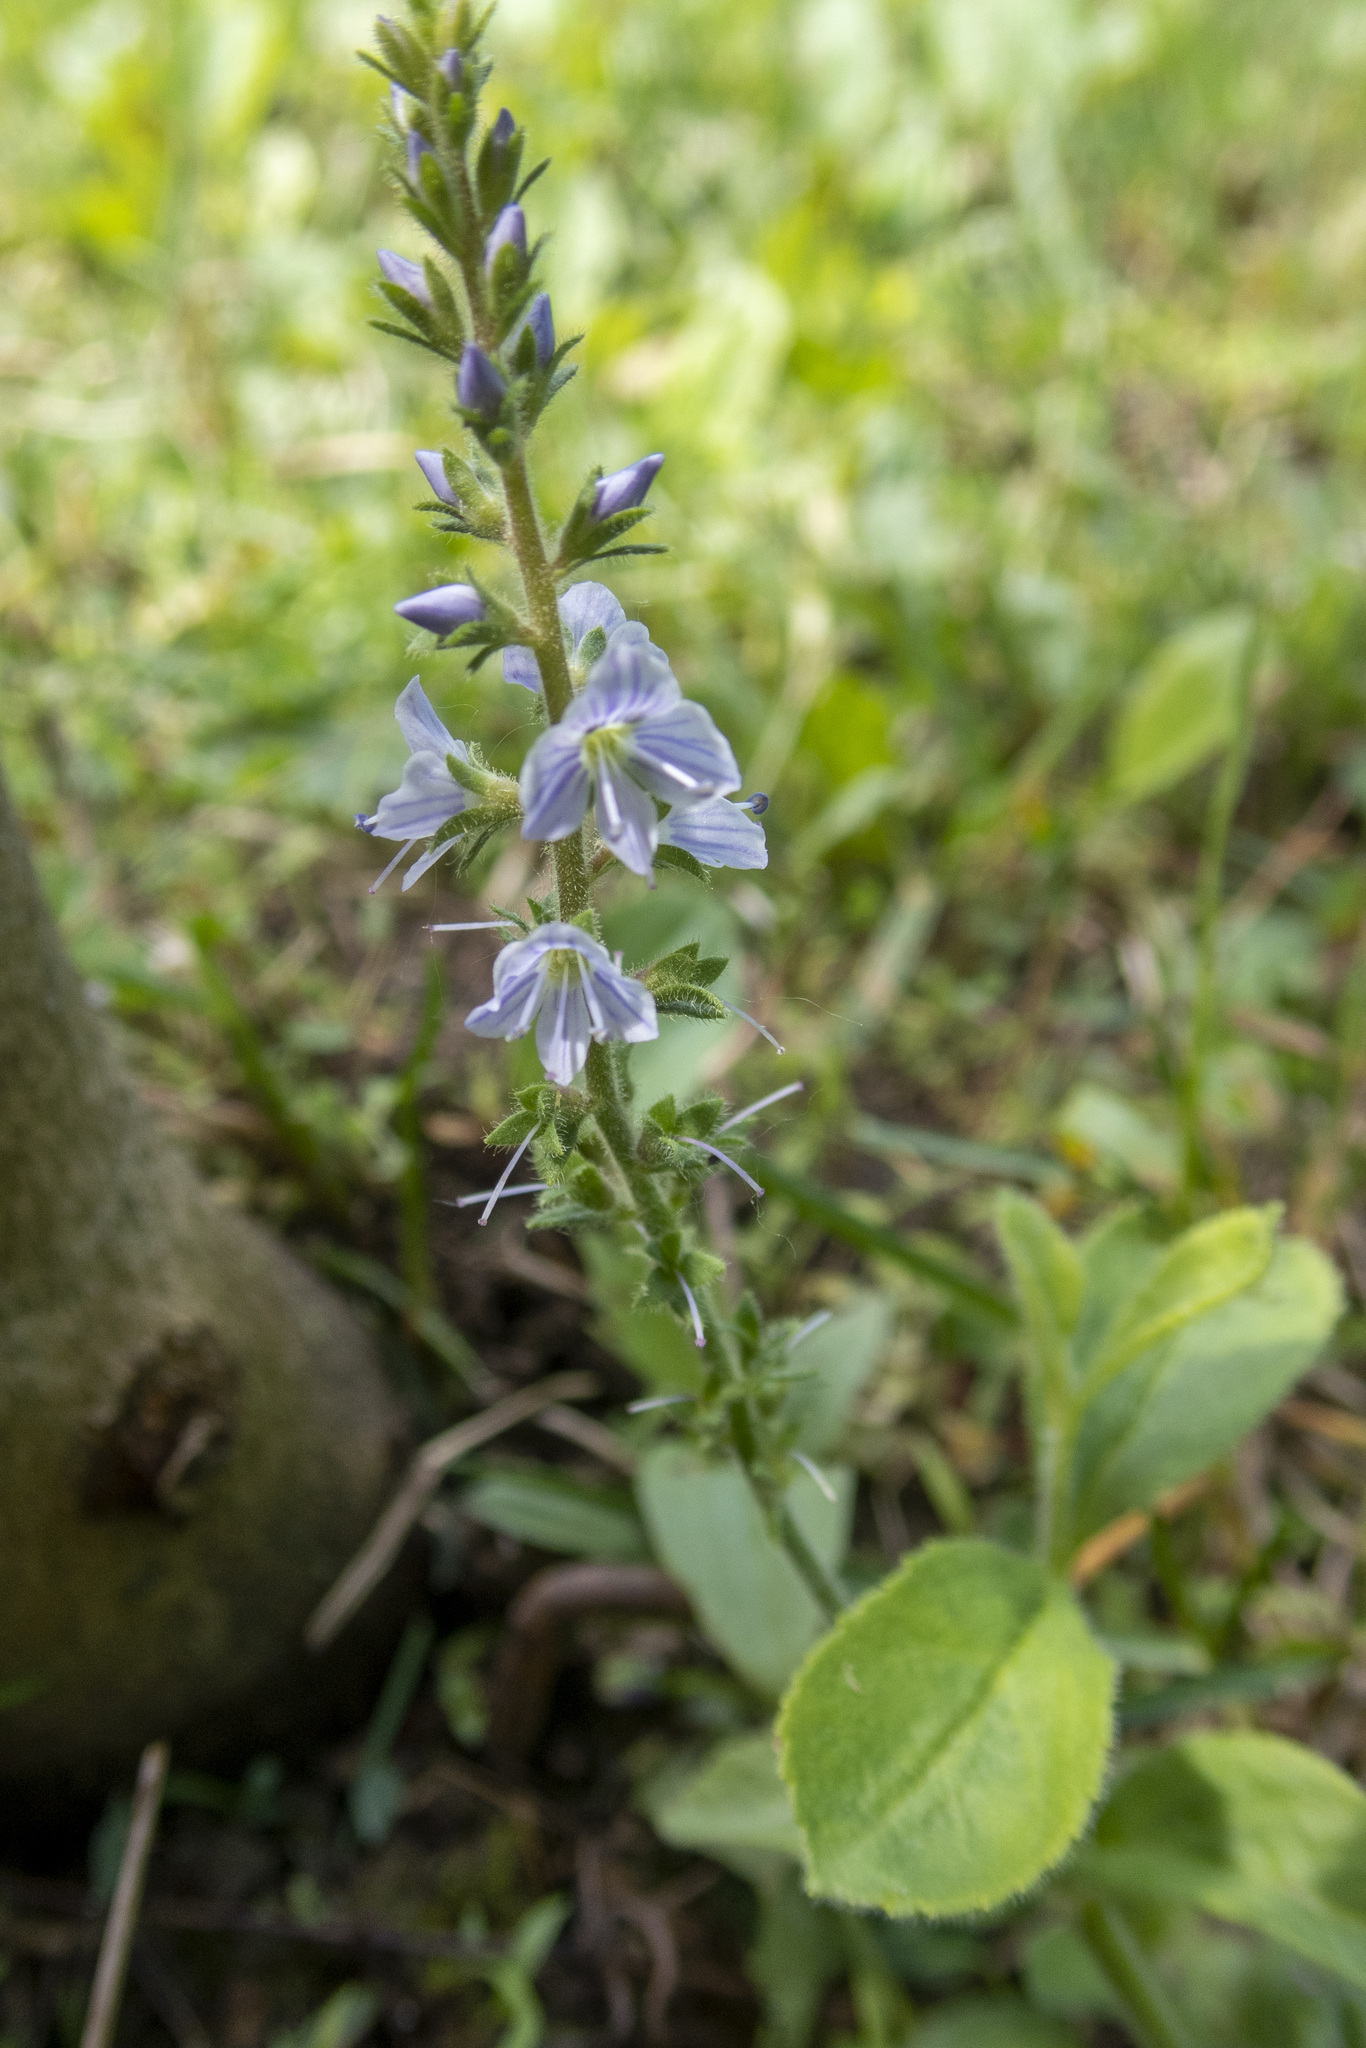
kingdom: Plantae
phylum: Tracheophyta
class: Magnoliopsida
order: Lamiales
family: Plantaginaceae
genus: Veronica
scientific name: Veronica officinalis
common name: Common speedwell
